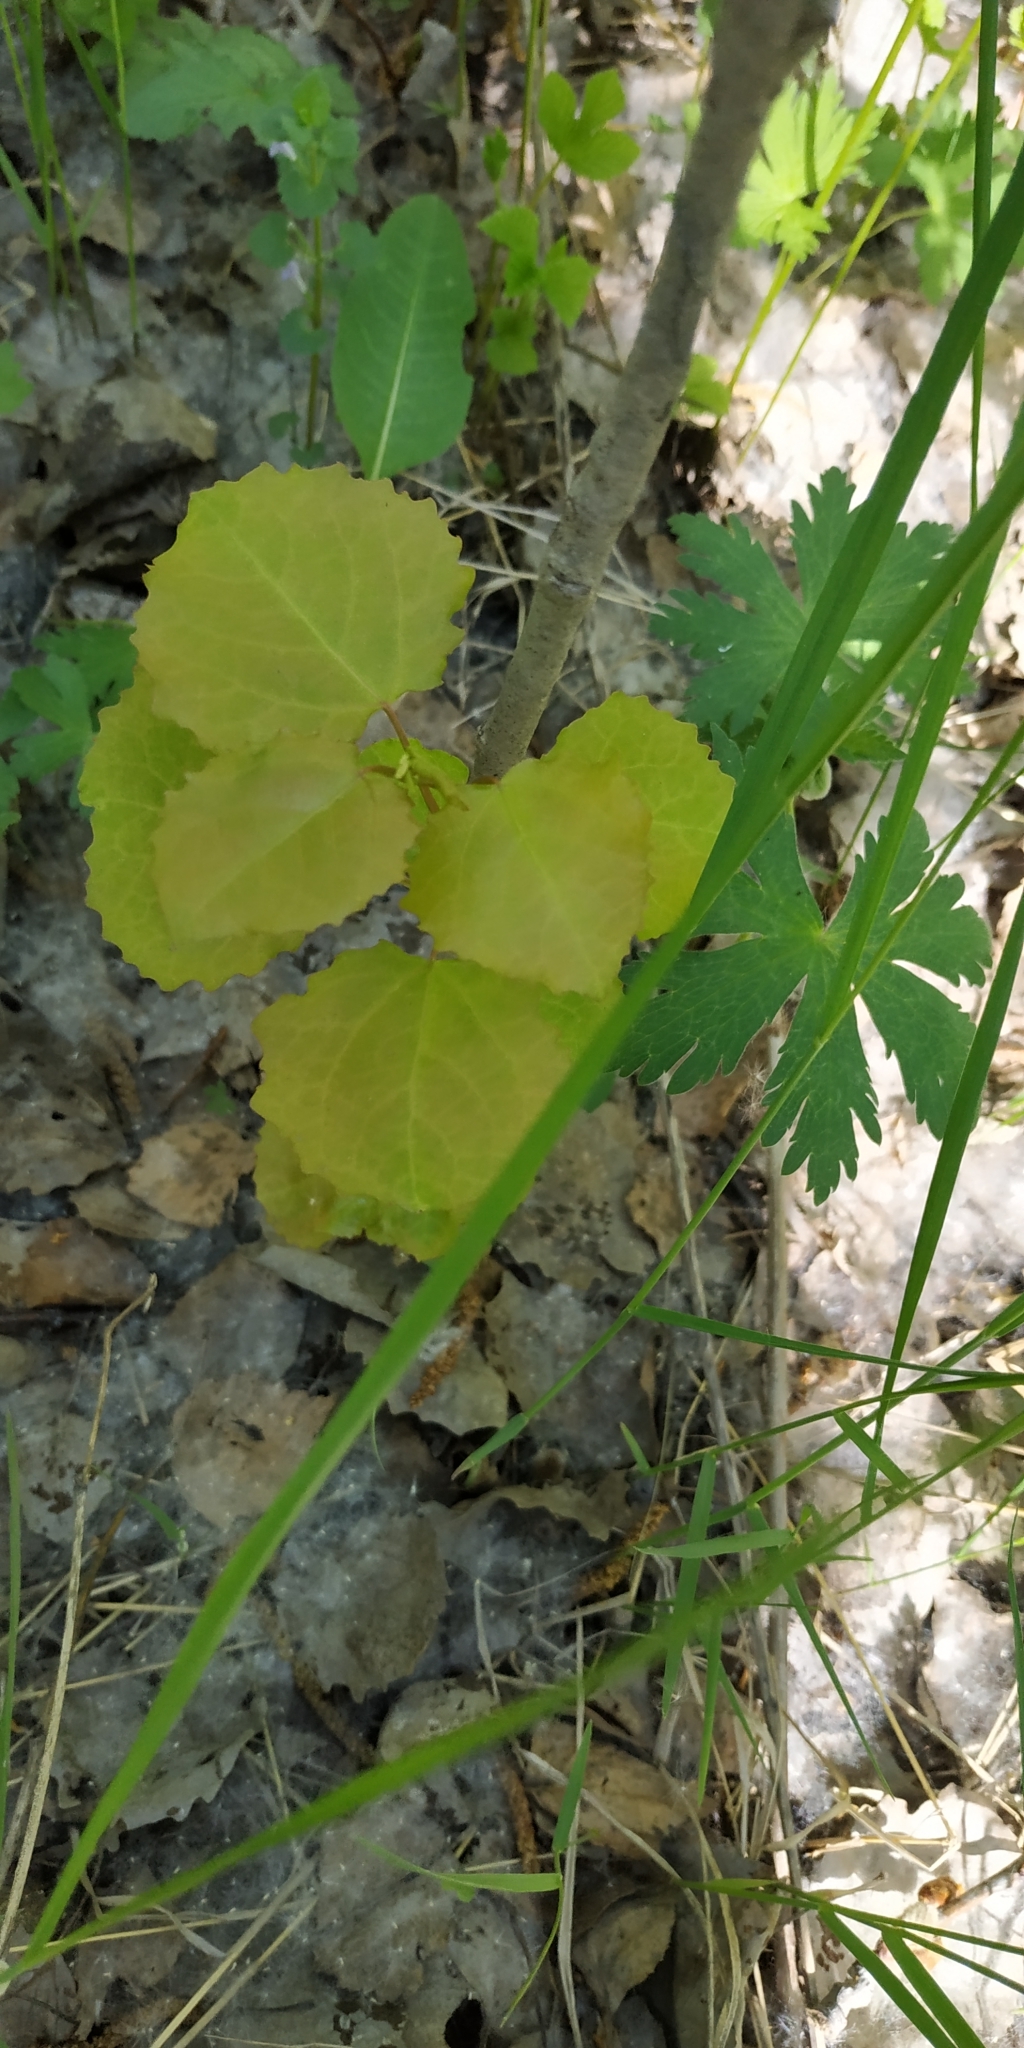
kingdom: Plantae
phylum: Tracheophyta
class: Magnoliopsida
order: Malpighiales
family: Salicaceae
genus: Populus
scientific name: Populus tremula
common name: European aspen
